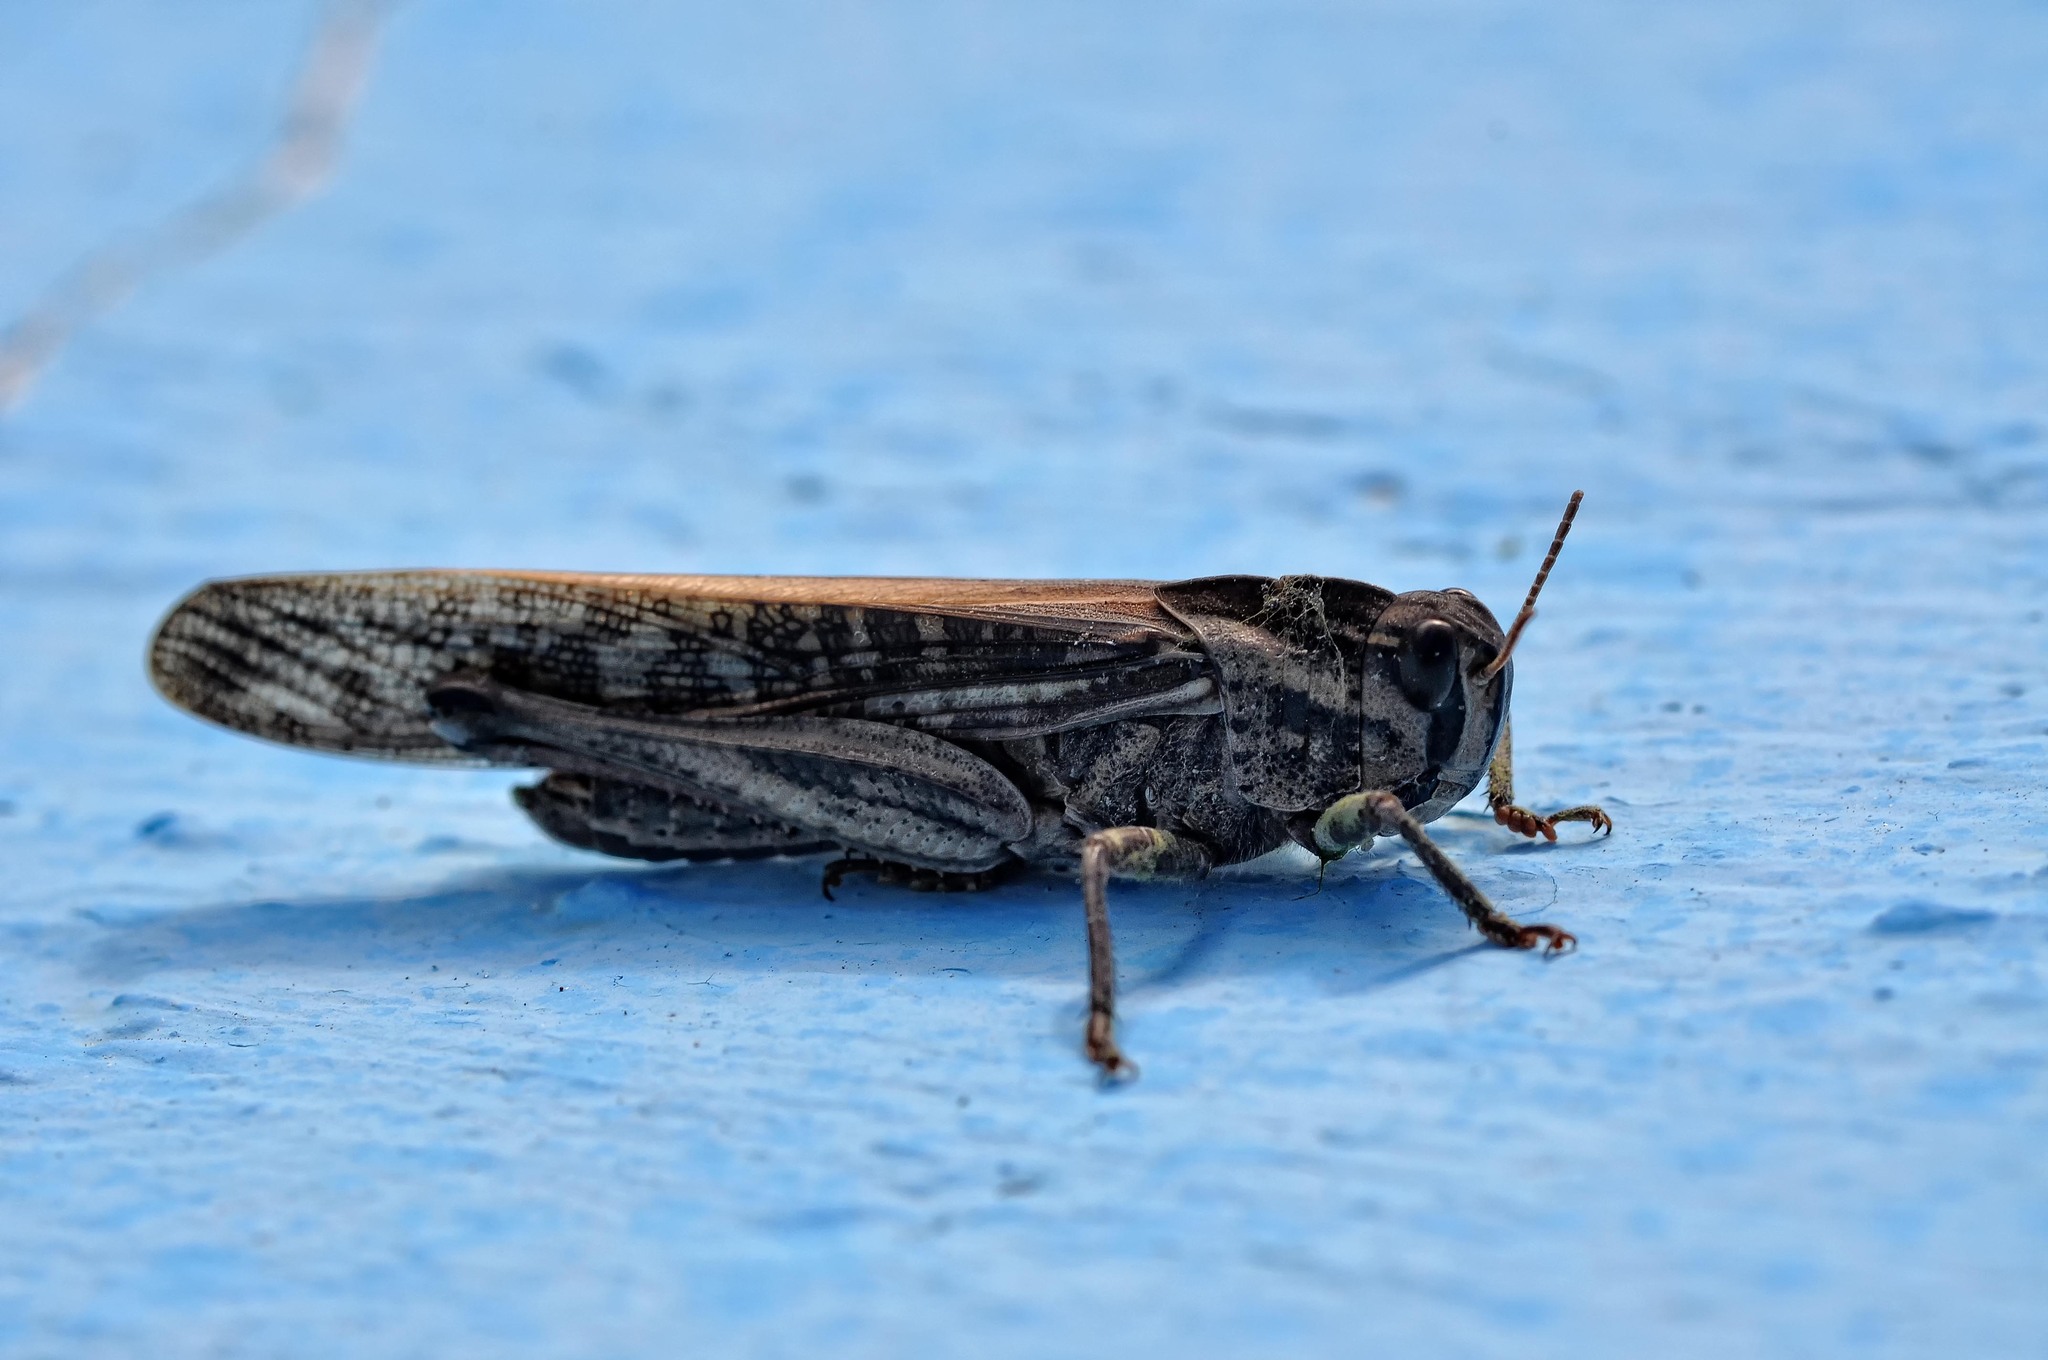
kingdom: Animalia
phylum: Arthropoda
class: Insecta
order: Orthoptera
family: Acrididae
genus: Locusta
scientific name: Locusta migratoria
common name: Migratory locust
